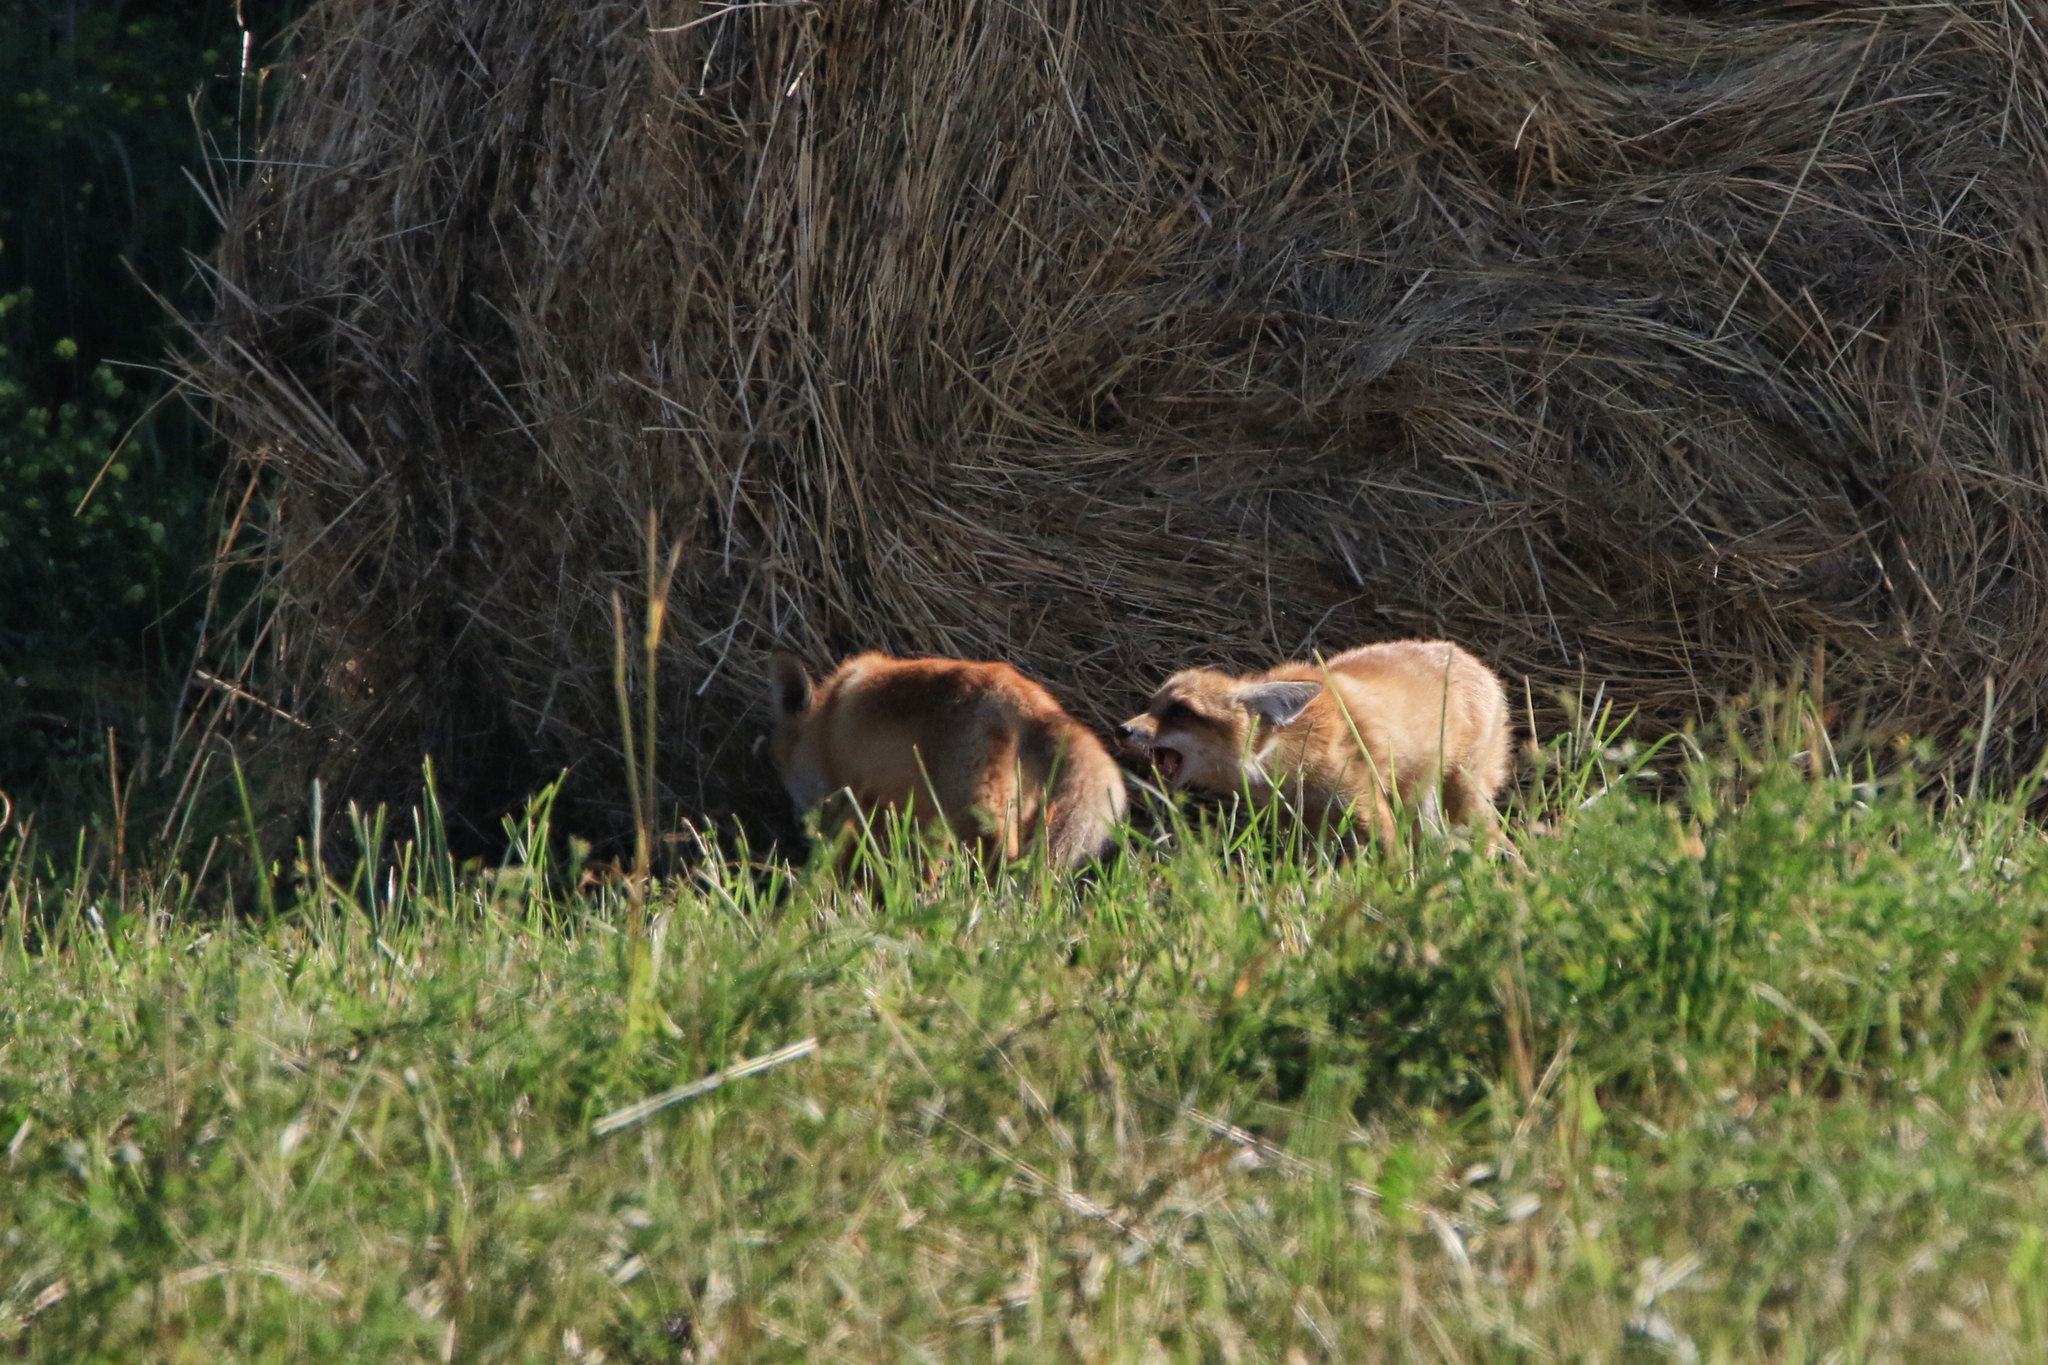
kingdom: Animalia
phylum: Chordata
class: Mammalia
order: Carnivora
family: Canidae
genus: Vulpes
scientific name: Vulpes vulpes
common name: Red fox
